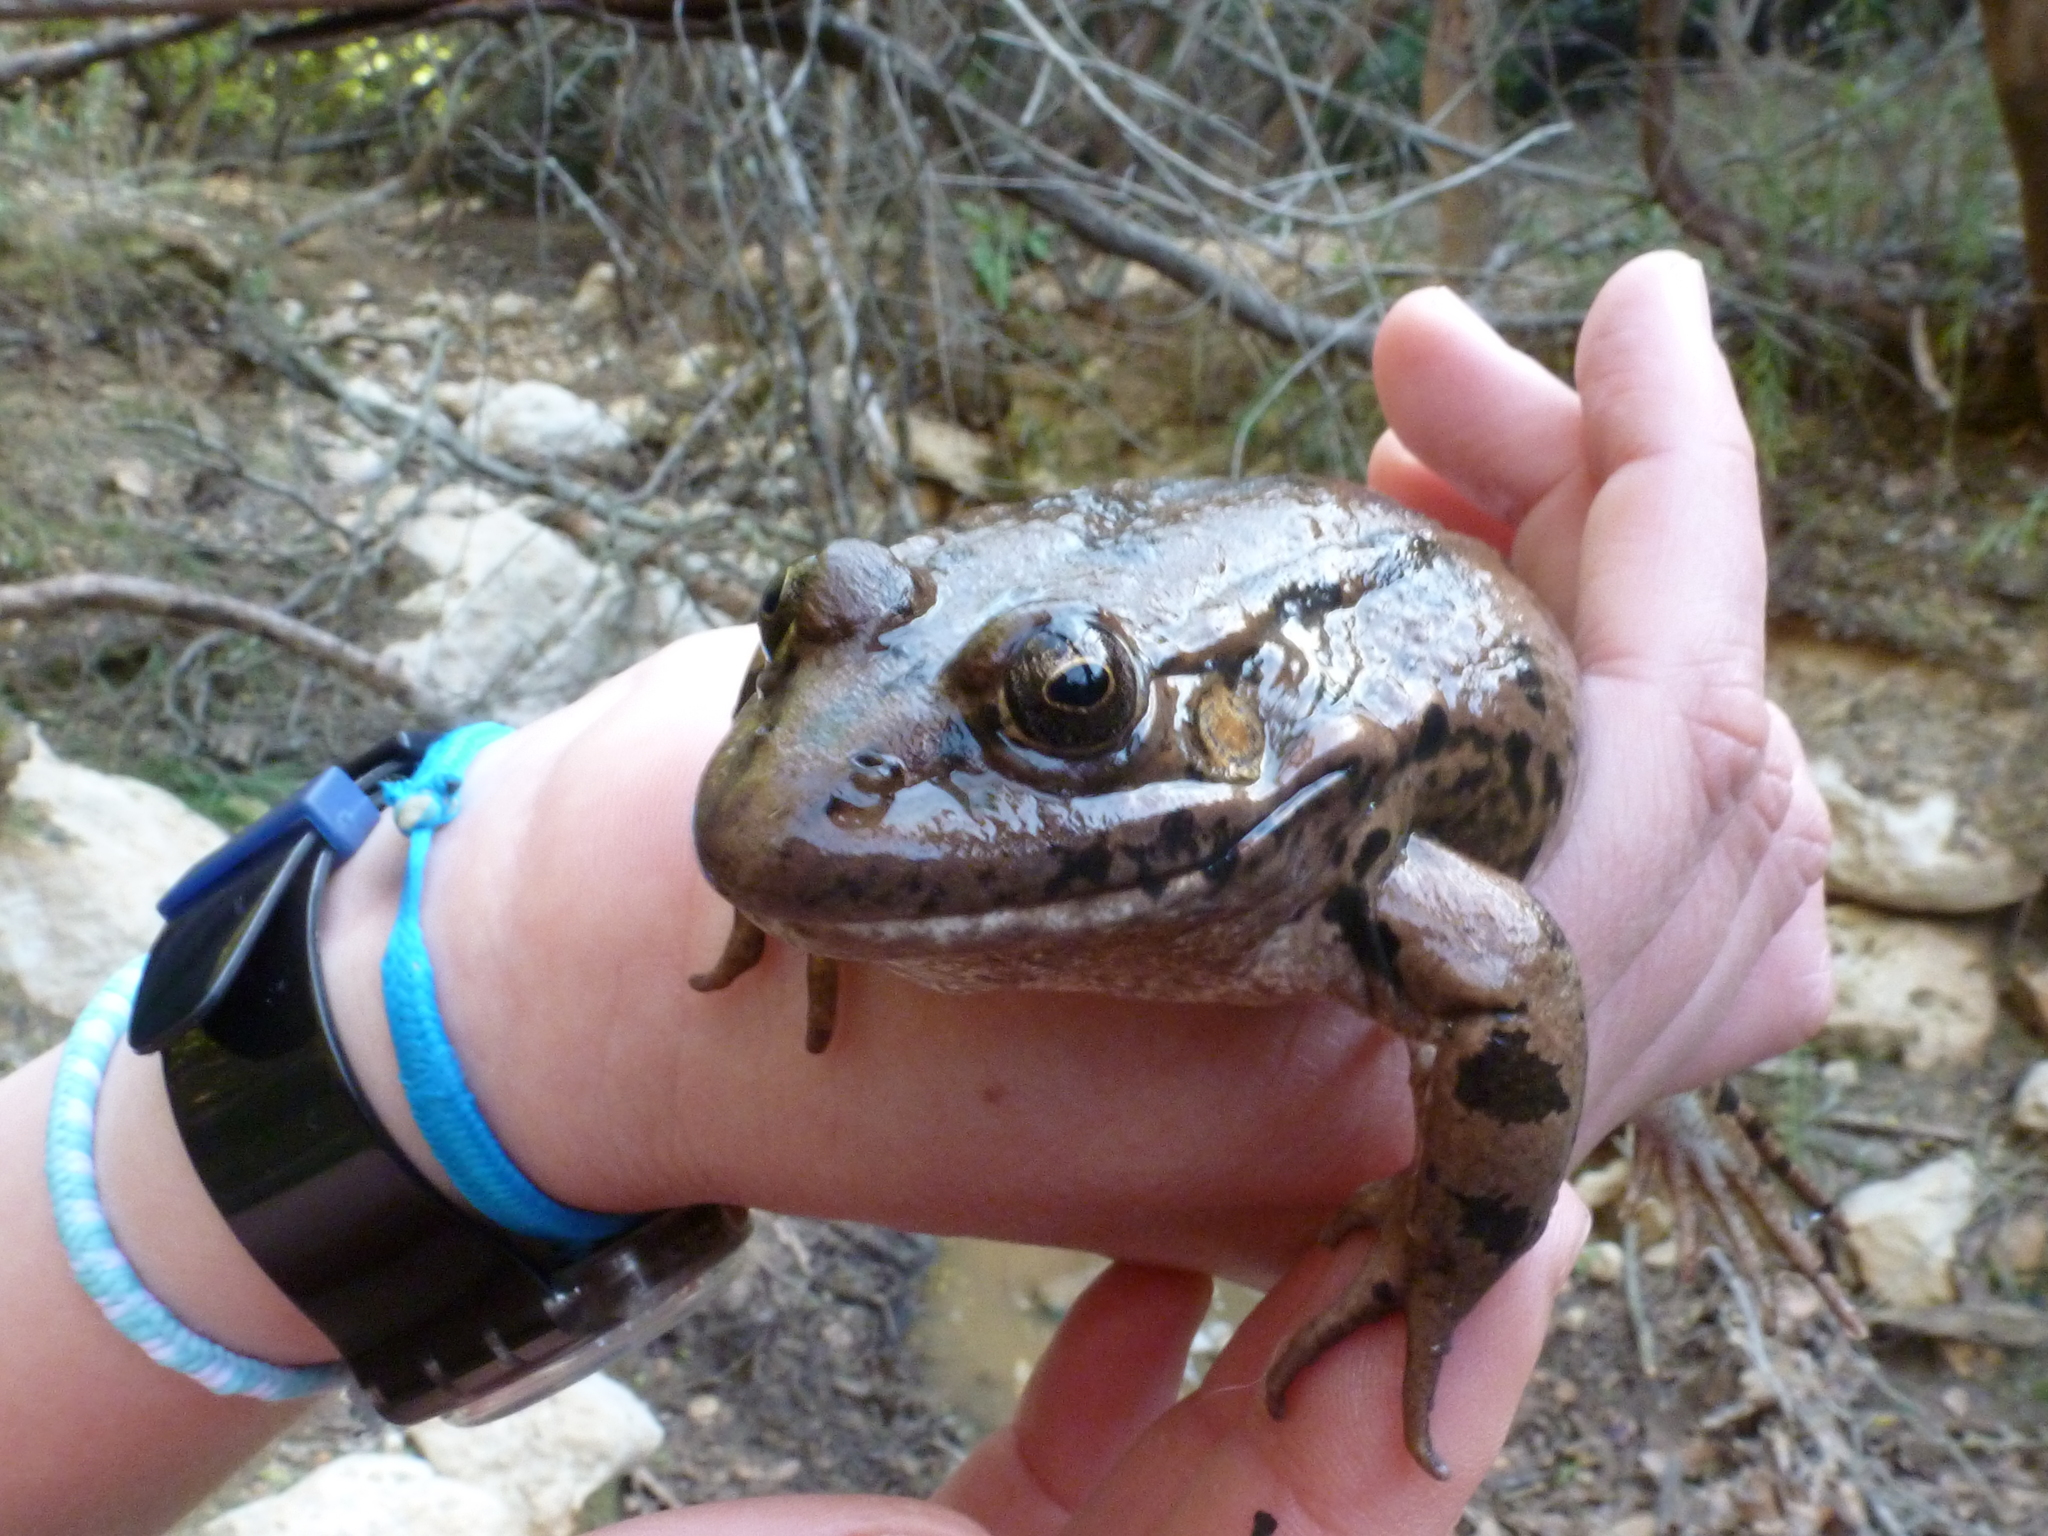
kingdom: Animalia
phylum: Chordata
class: Amphibia
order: Anura
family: Ranidae
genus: Pelophylax
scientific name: Pelophylax ridibundus
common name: Marsh frog
